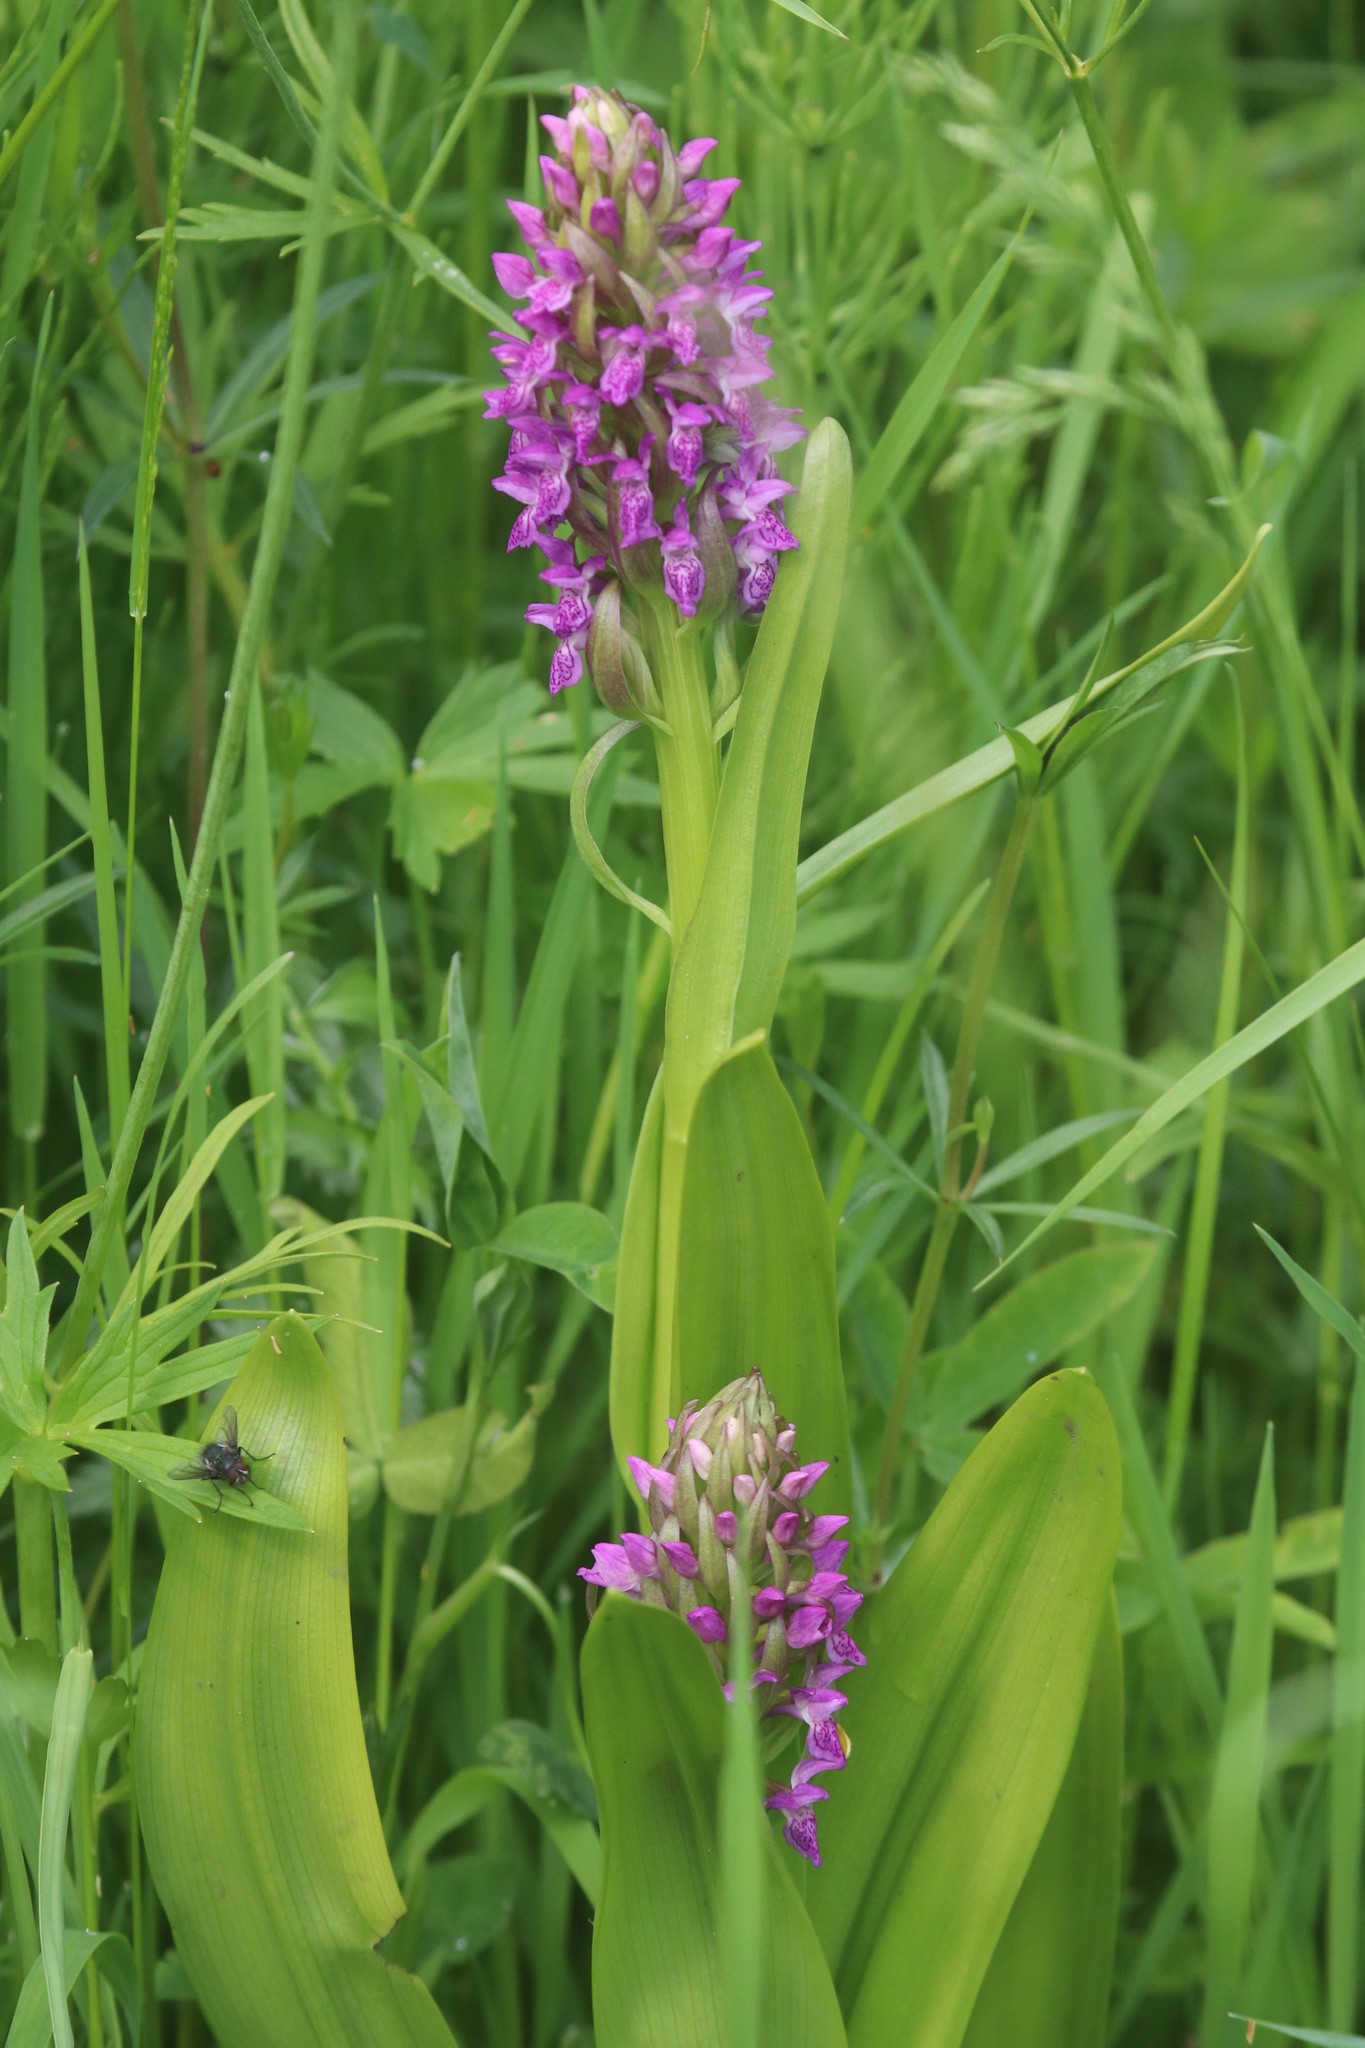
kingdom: Plantae
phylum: Tracheophyta
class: Liliopsida
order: Asparagales
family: Orchidaceae
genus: Dactylorhiza
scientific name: Dactylorhiza incarnata
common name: Early marsh-orchid
